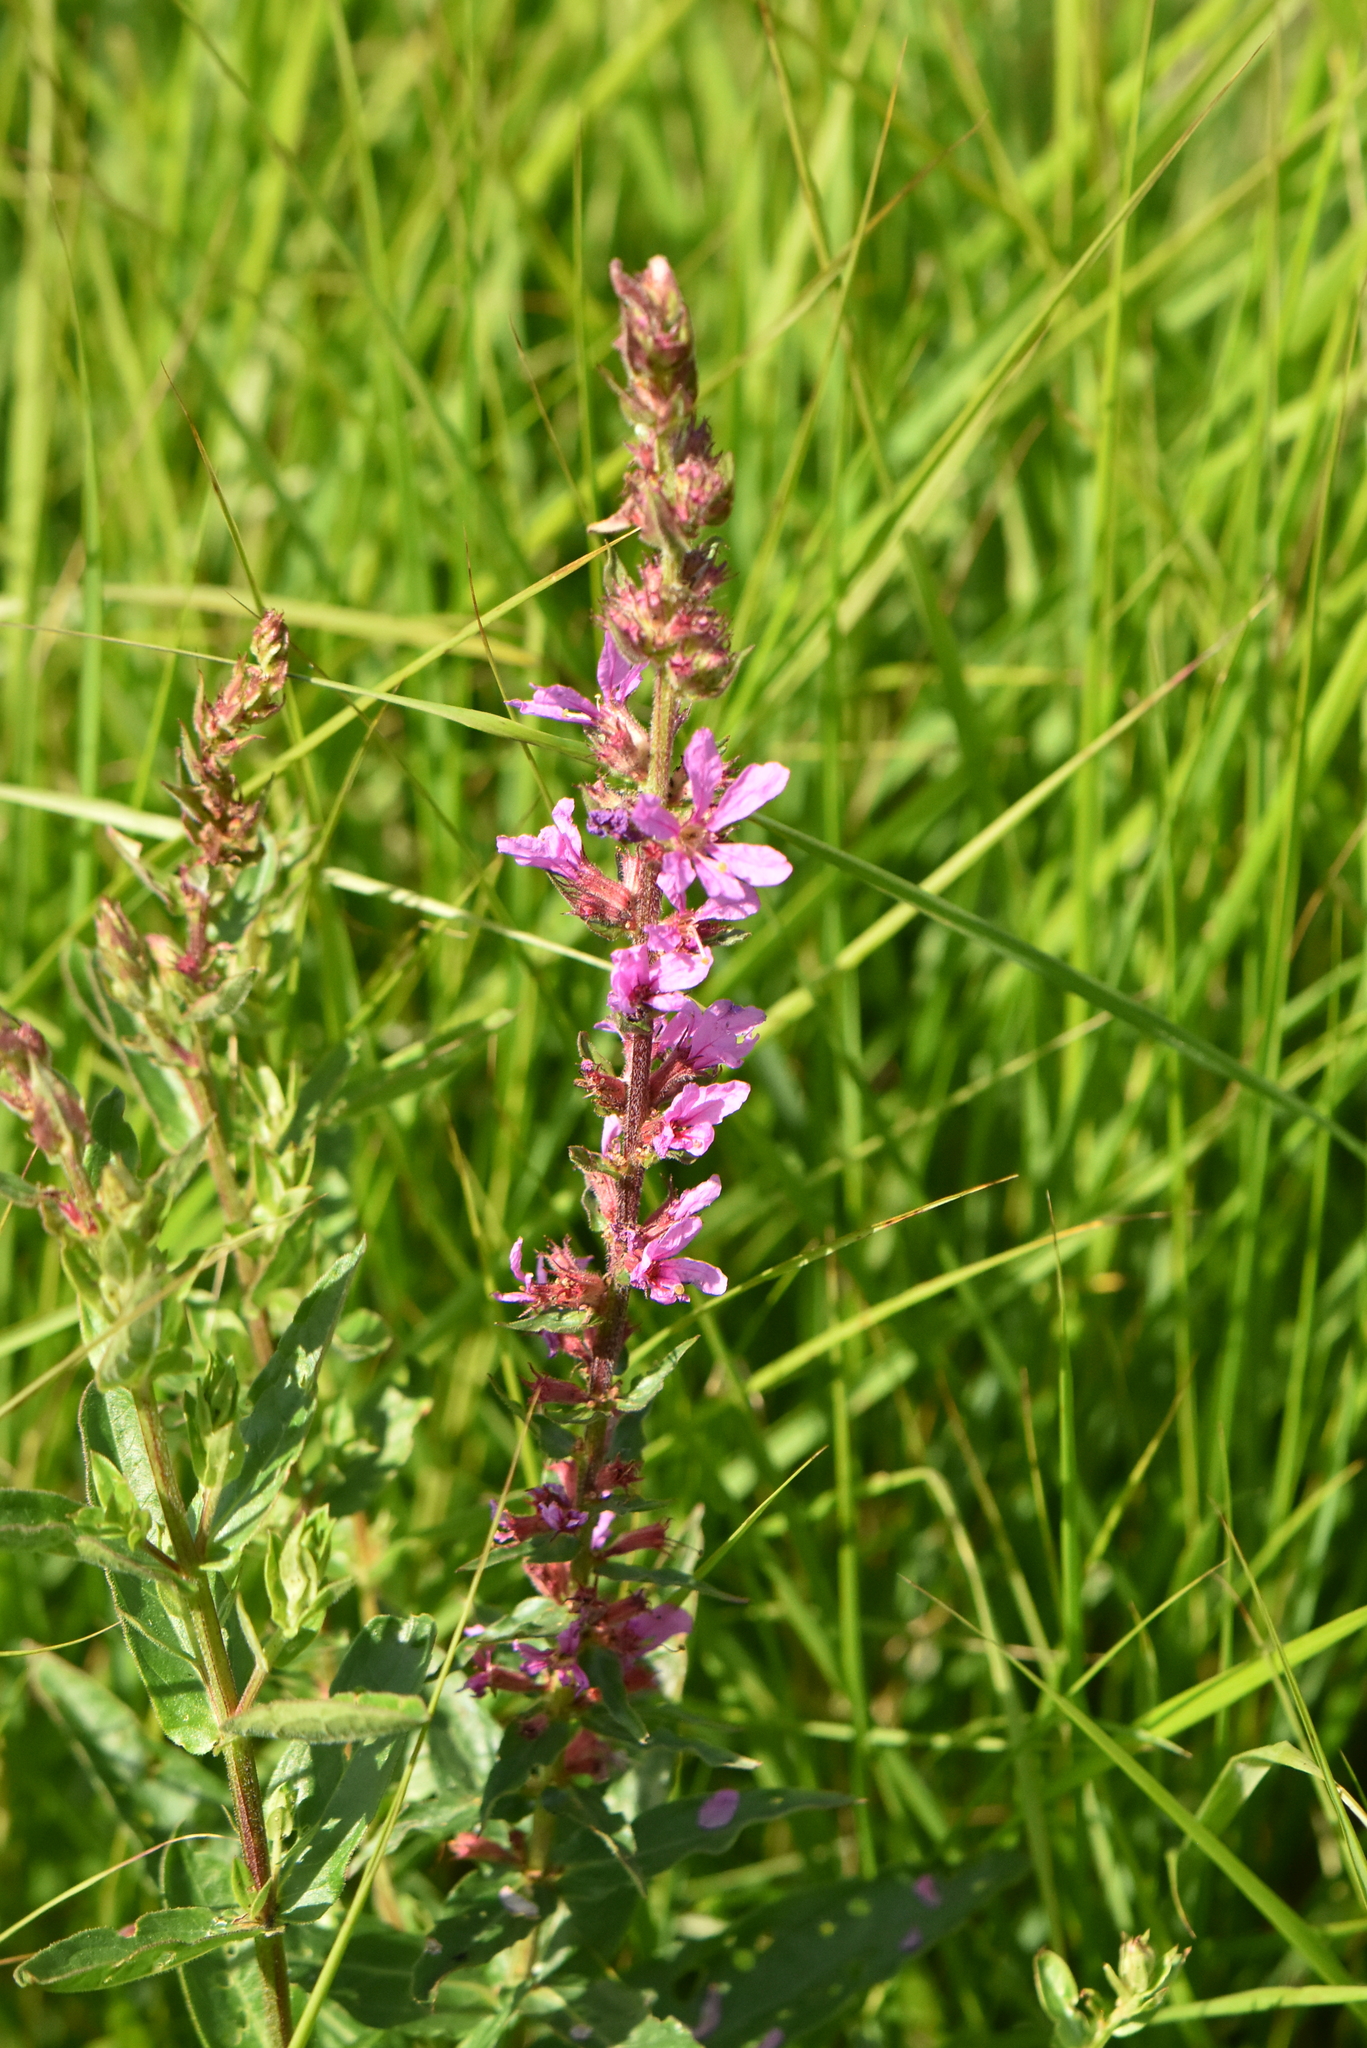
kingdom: Plantae
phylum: Tracheophyta
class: Magnoliopsida
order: Myrtales
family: Lythraceae
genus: Lythrum
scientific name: Lythrum salicaria
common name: Purple loosestrife
